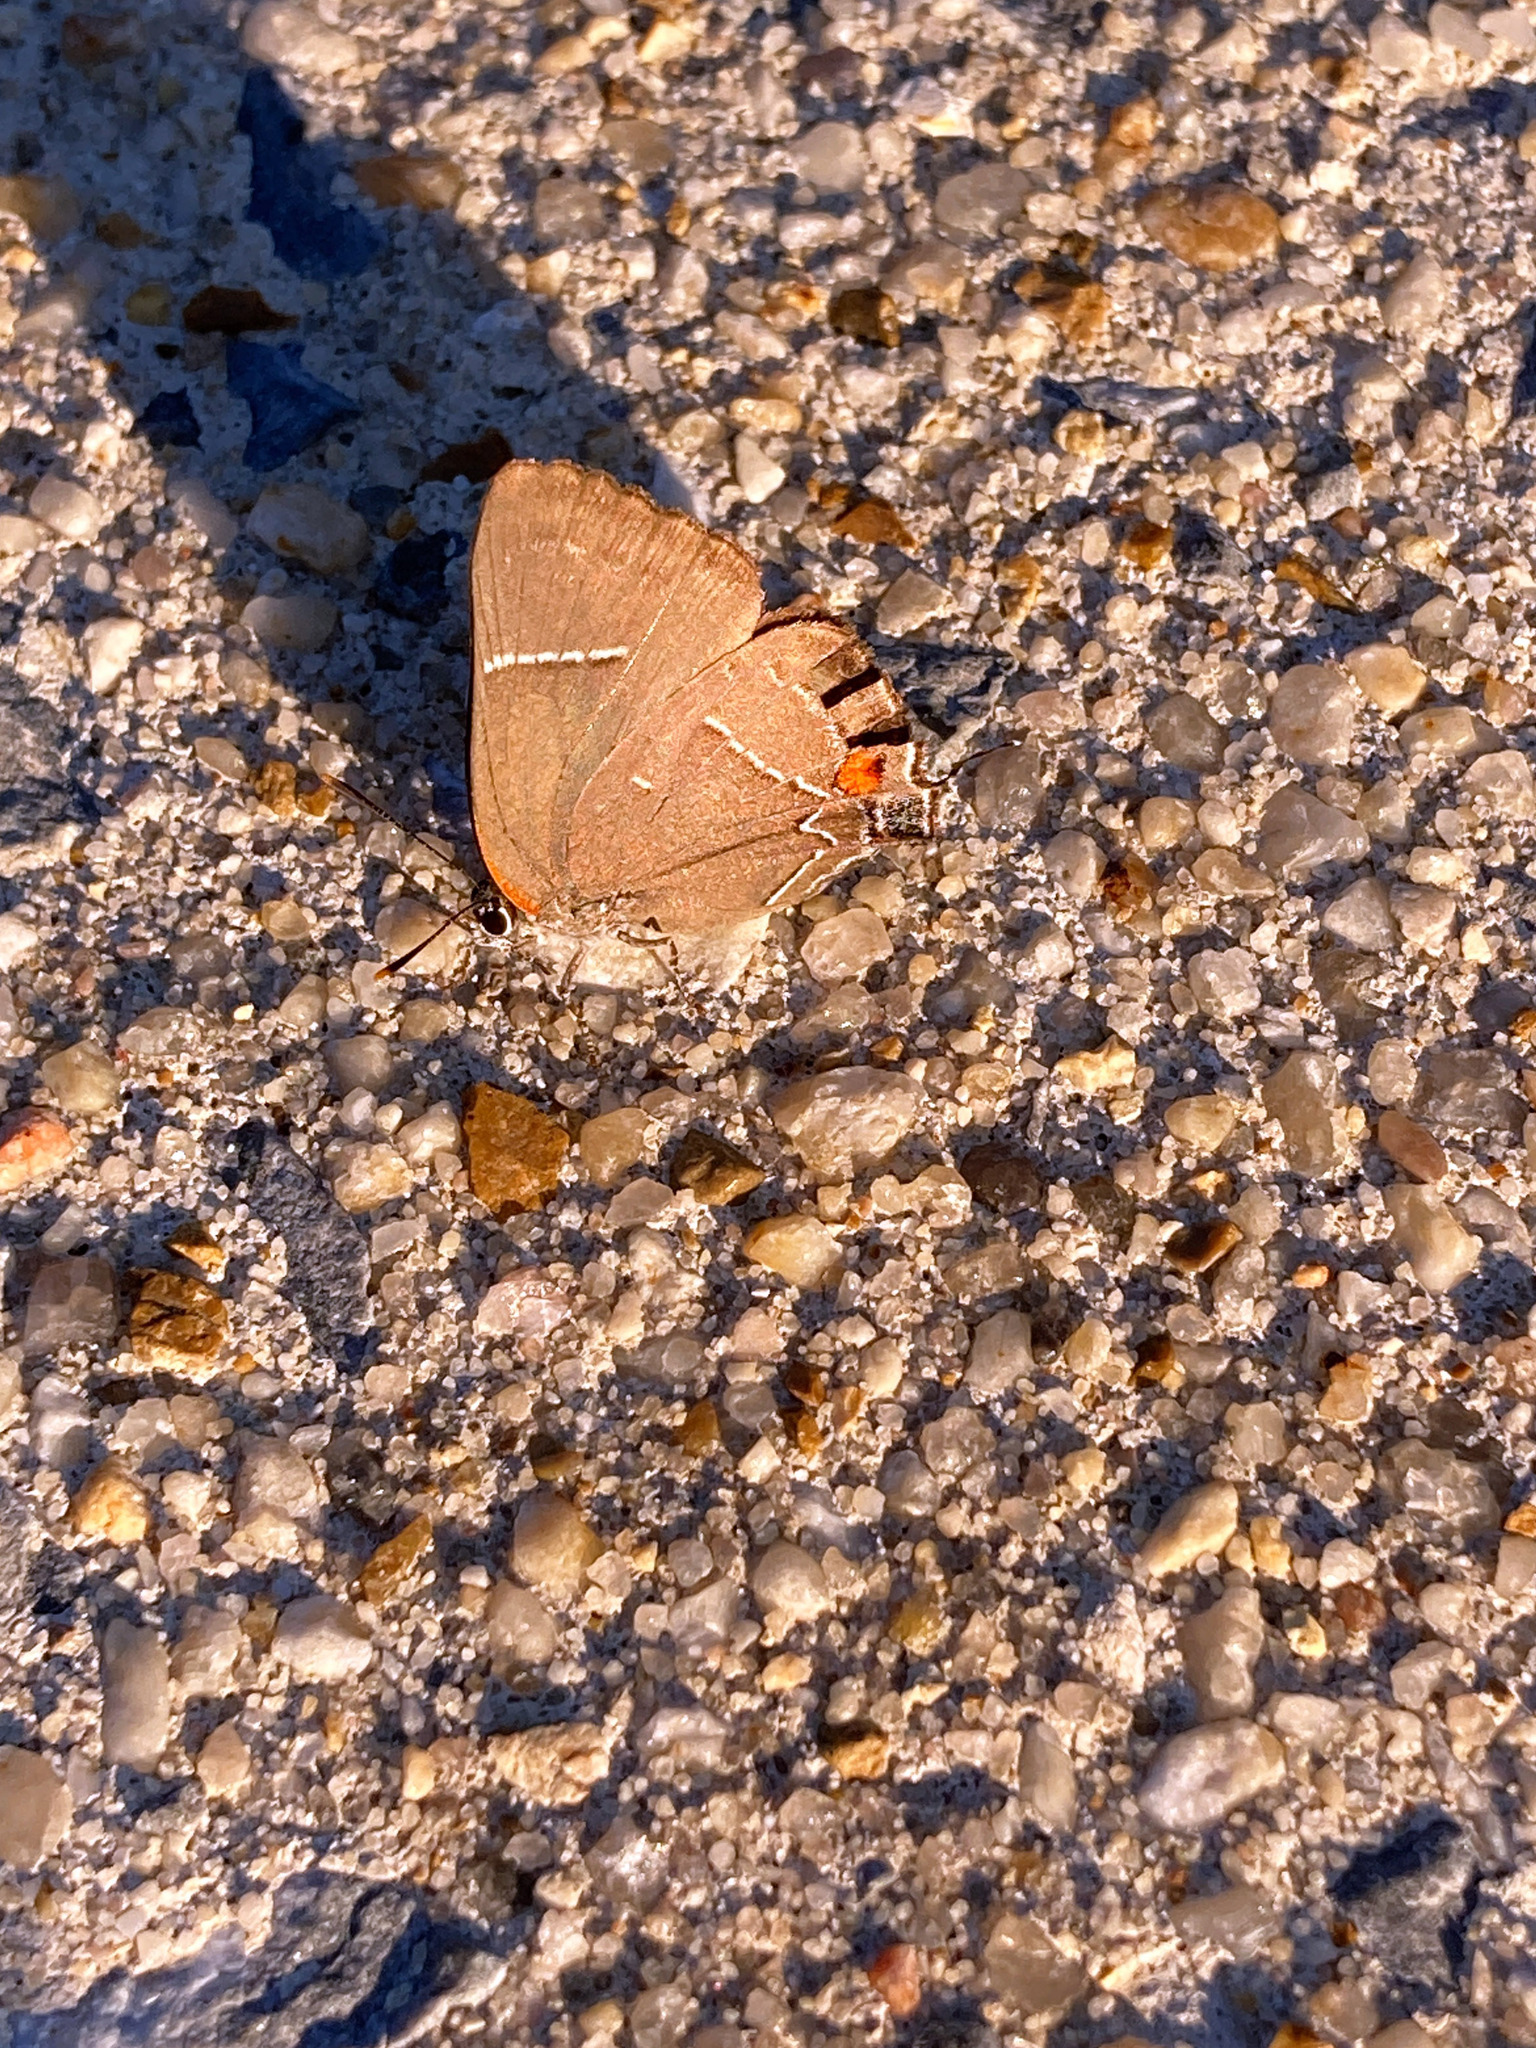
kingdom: Animalia
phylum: Arthropoda
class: Insecta
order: Lepidoptera
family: Lycaenidae
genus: Parrhasius
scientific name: Parrhasius m-album
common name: White m hairstreak
